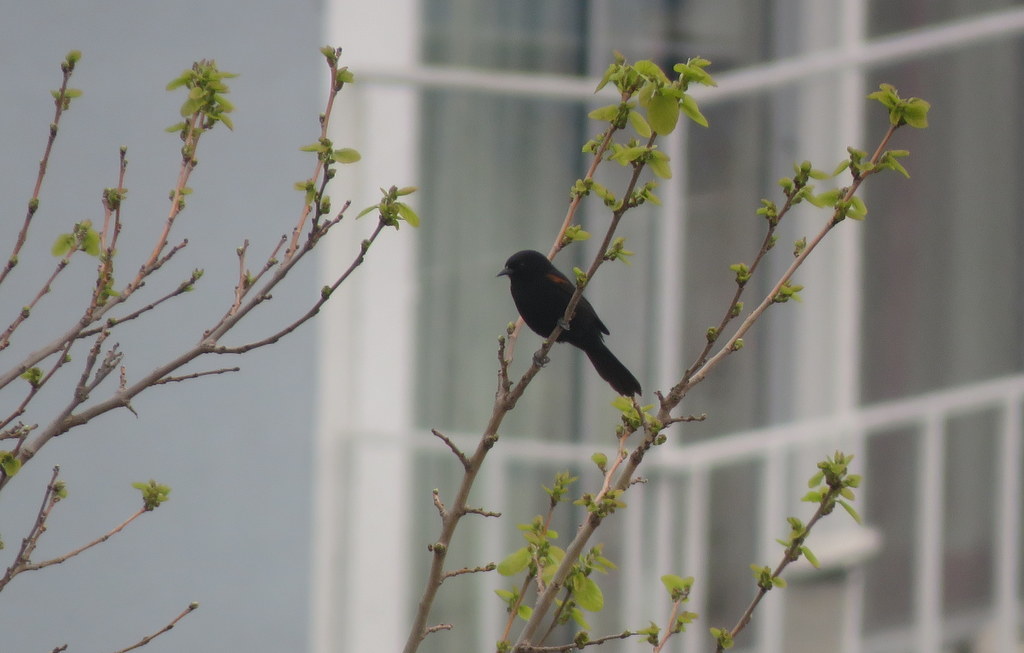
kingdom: Animalia
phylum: Chordata
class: Aves
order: Passeriformes
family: Icteridae
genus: Icterus
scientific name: Icterus cayanensis
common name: Epaulet oriole
